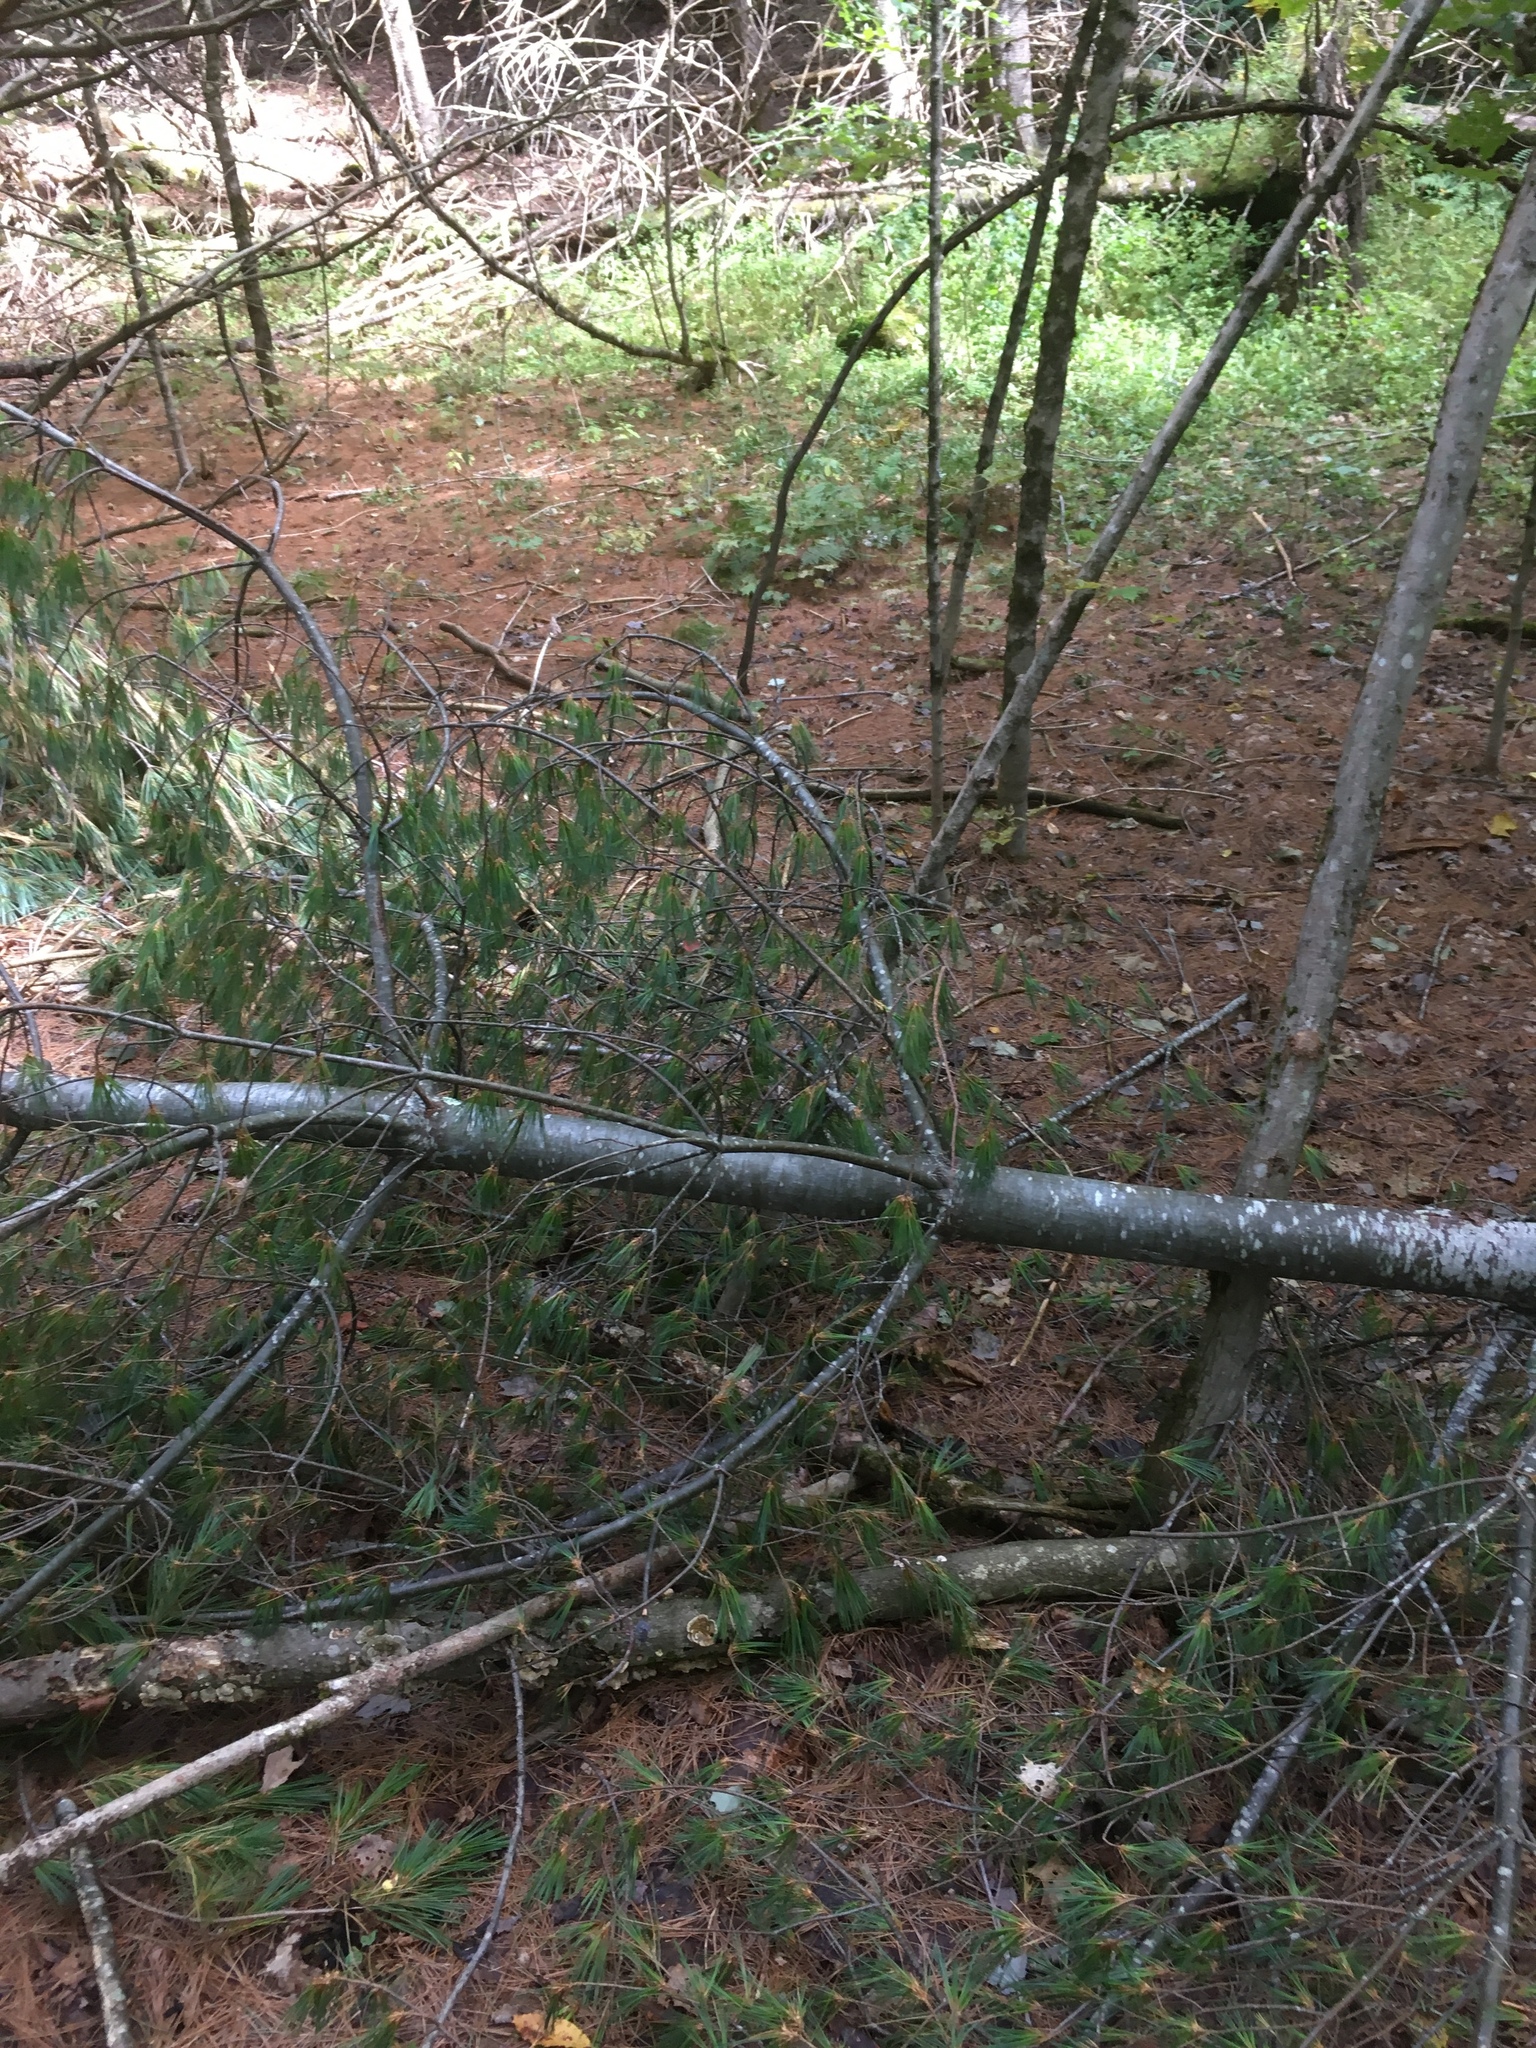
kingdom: Plantae
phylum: Tracheophyta
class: Pinopsida
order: Pinales
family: Pinaceae
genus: Pinus
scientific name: Pinus strobus
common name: Weymouth pine
